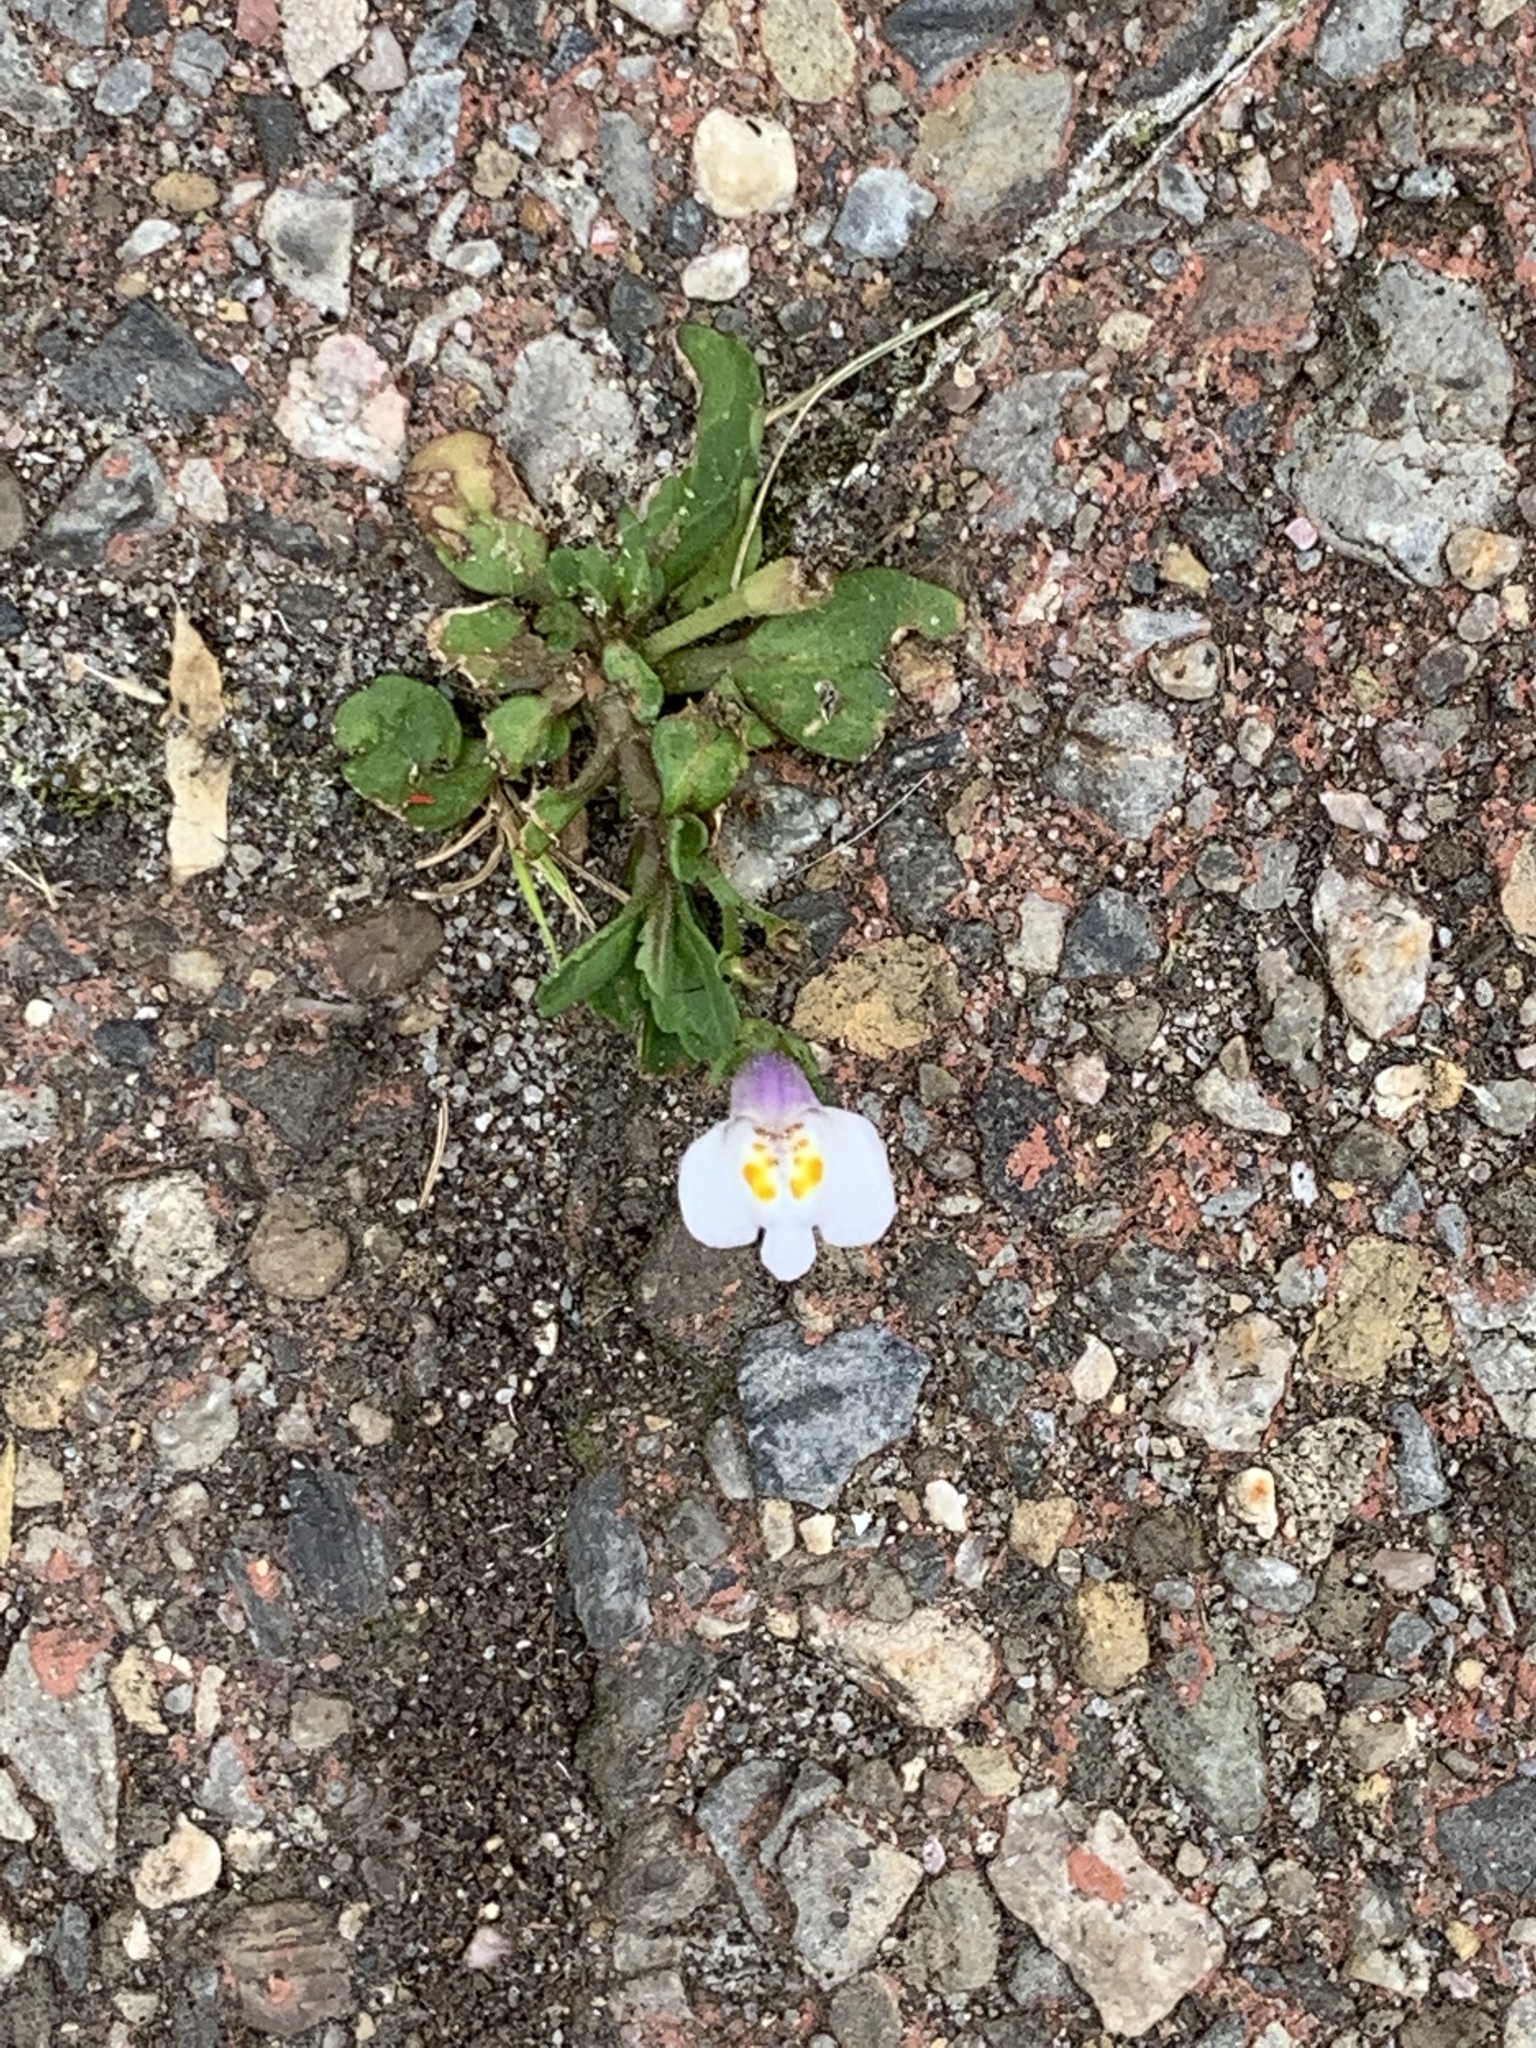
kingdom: Plantae
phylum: Tracheophyta
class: Magnoliopsida
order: Lamiales
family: Mazaceae
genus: Mazus
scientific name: Mazus pumilus
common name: Japanese mazus
